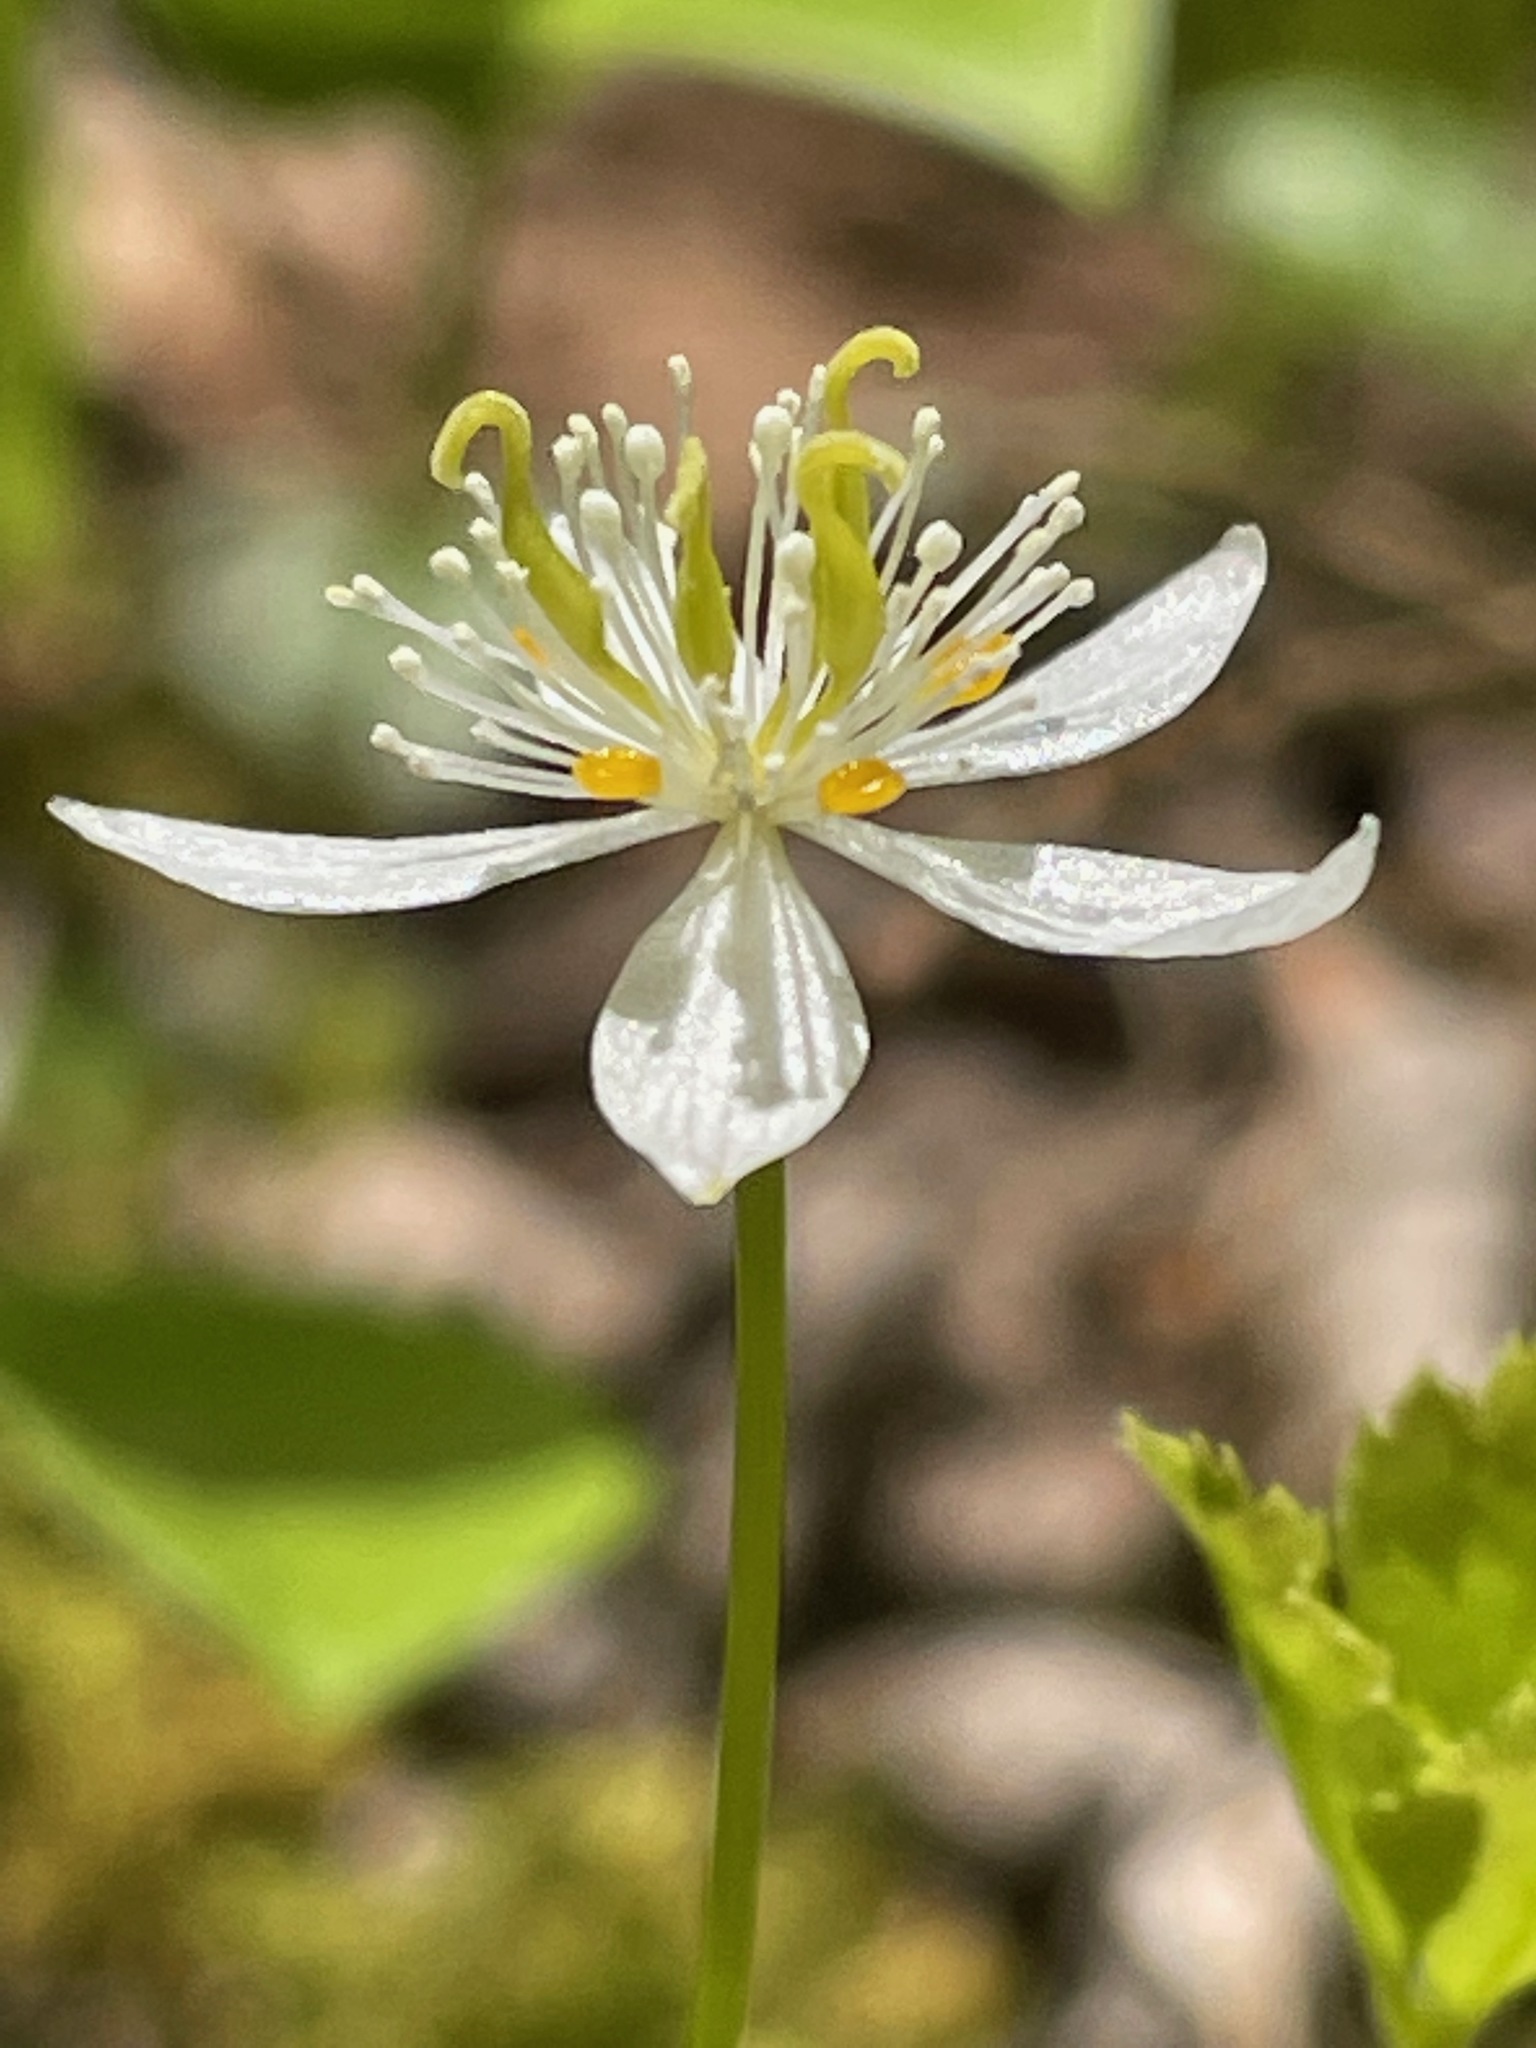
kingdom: Plantae
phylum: Tracheophyta
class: Magnoliopsida
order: Ranunculales
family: Ranunculaceae
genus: Coptis
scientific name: Coptis trifolia
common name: Canker-root
